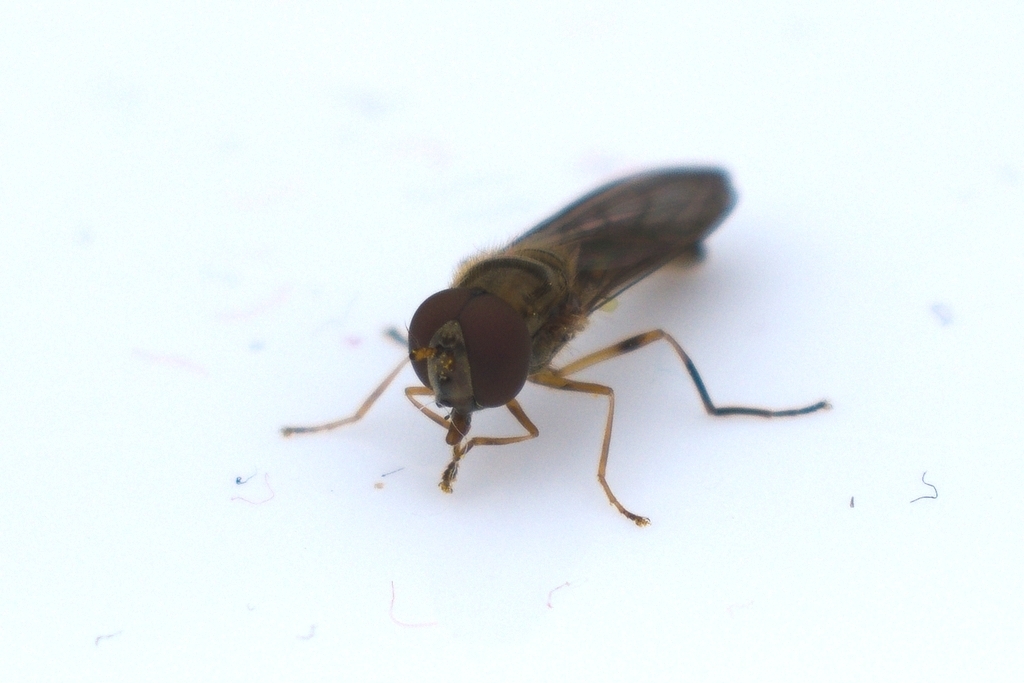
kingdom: Animalia
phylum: Arthropoda
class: Insecta
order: Diptera
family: Syrphidae
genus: Melanostoma
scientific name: Melanostoma scalare
